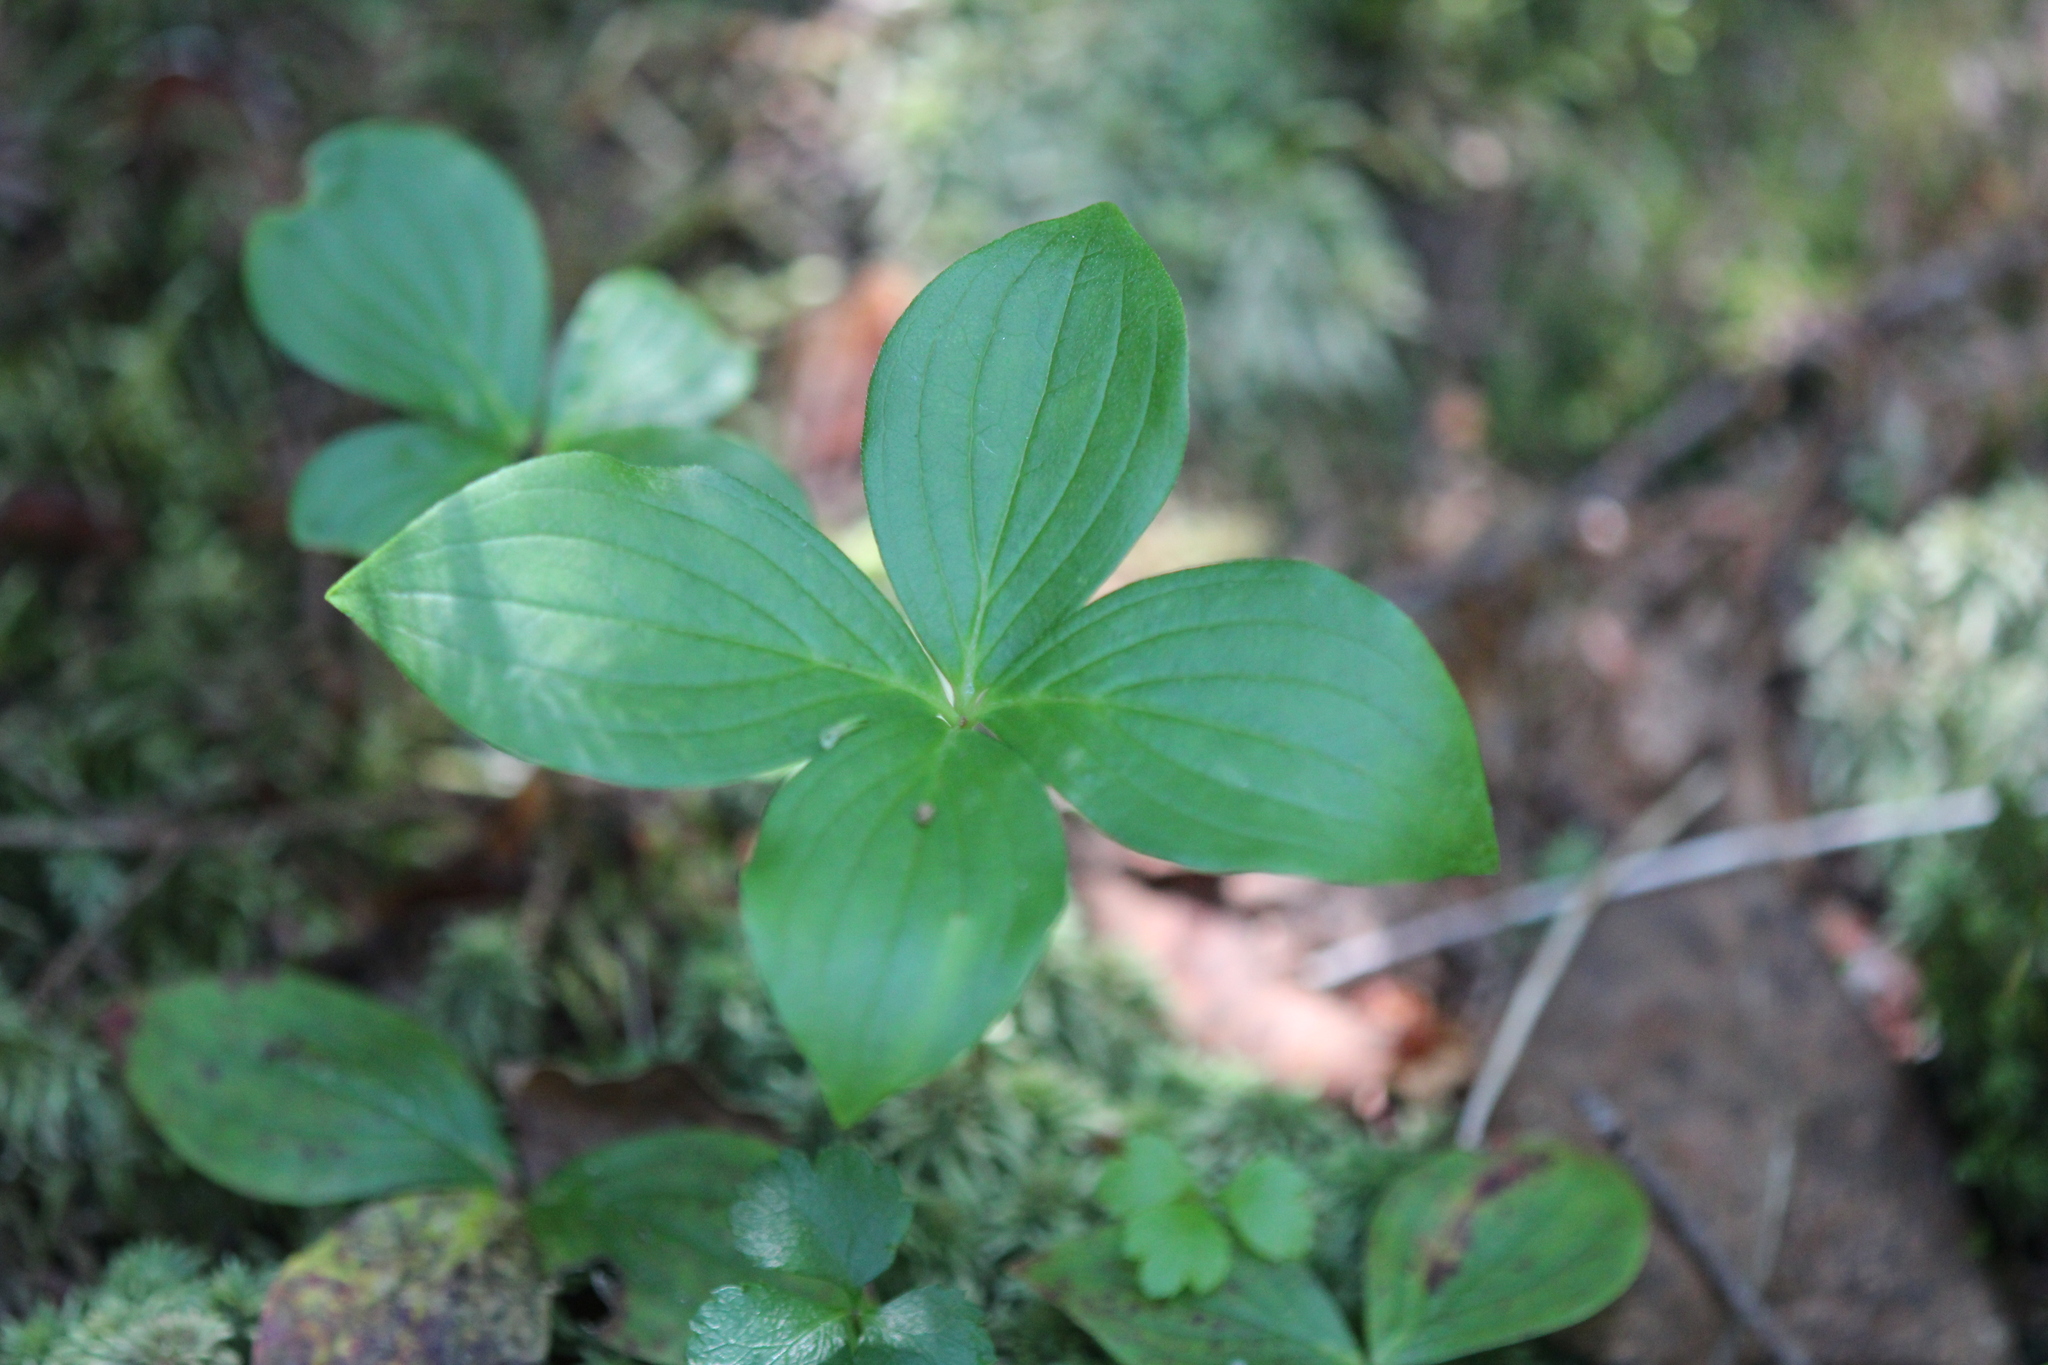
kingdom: Plantae
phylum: Tracheophyta
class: Magnoliopsida
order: Cornales
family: Cornaceae
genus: Cornus
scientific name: Cornus canadensis
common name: Creeping dogwood
